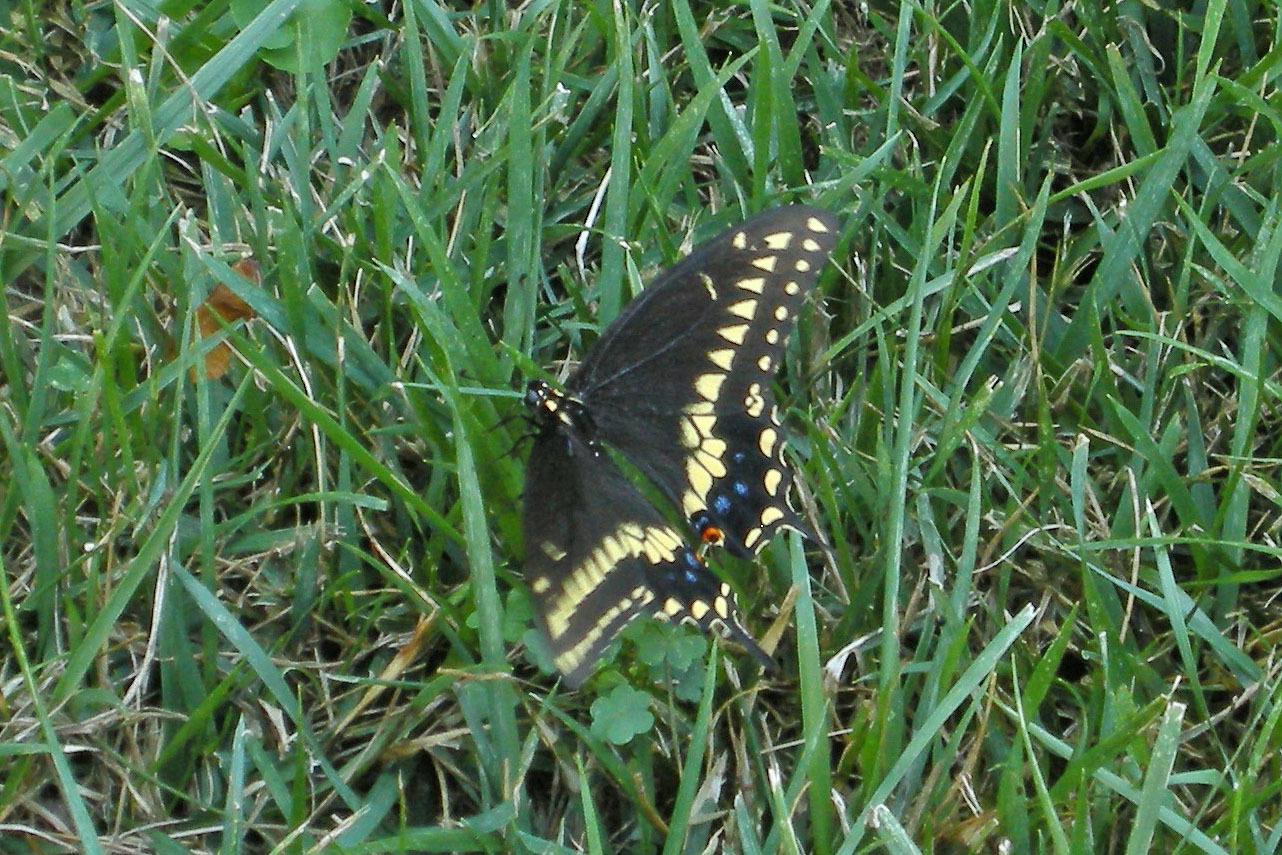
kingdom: Animalia
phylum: Arthropoda
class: Insecta
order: Lepidoptera
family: Papilionidae
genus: Papilio
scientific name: Papilio polyxenes
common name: Black swallowtail
